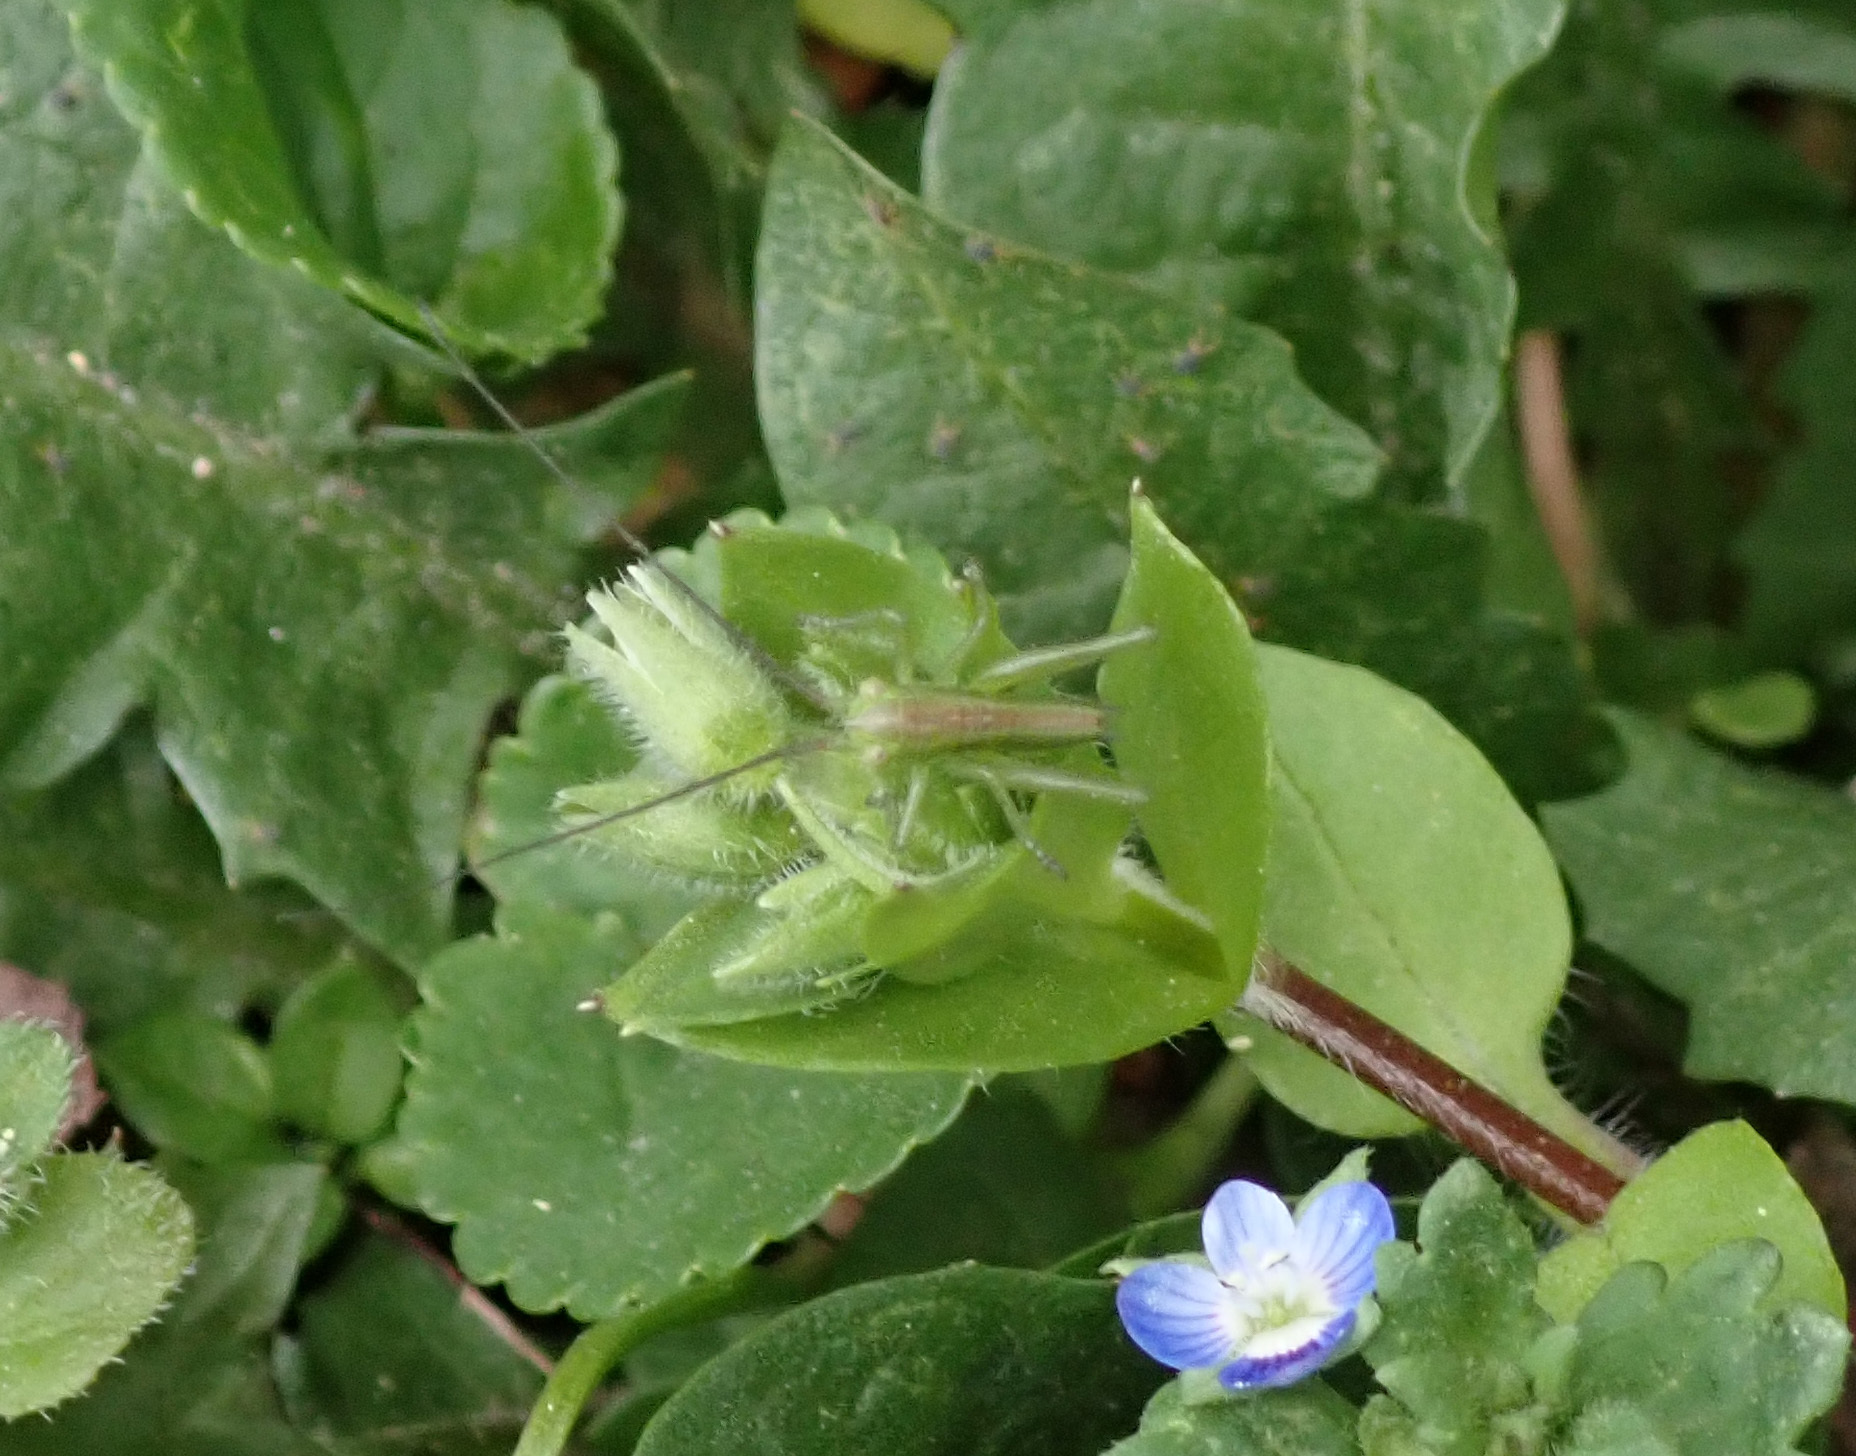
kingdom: Animalia
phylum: Arthropoda
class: Insecta
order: Orthoptera
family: Tettigoniidae
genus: Tettigonia
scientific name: Tettigonia viridissima
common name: Great green bush-cricket
